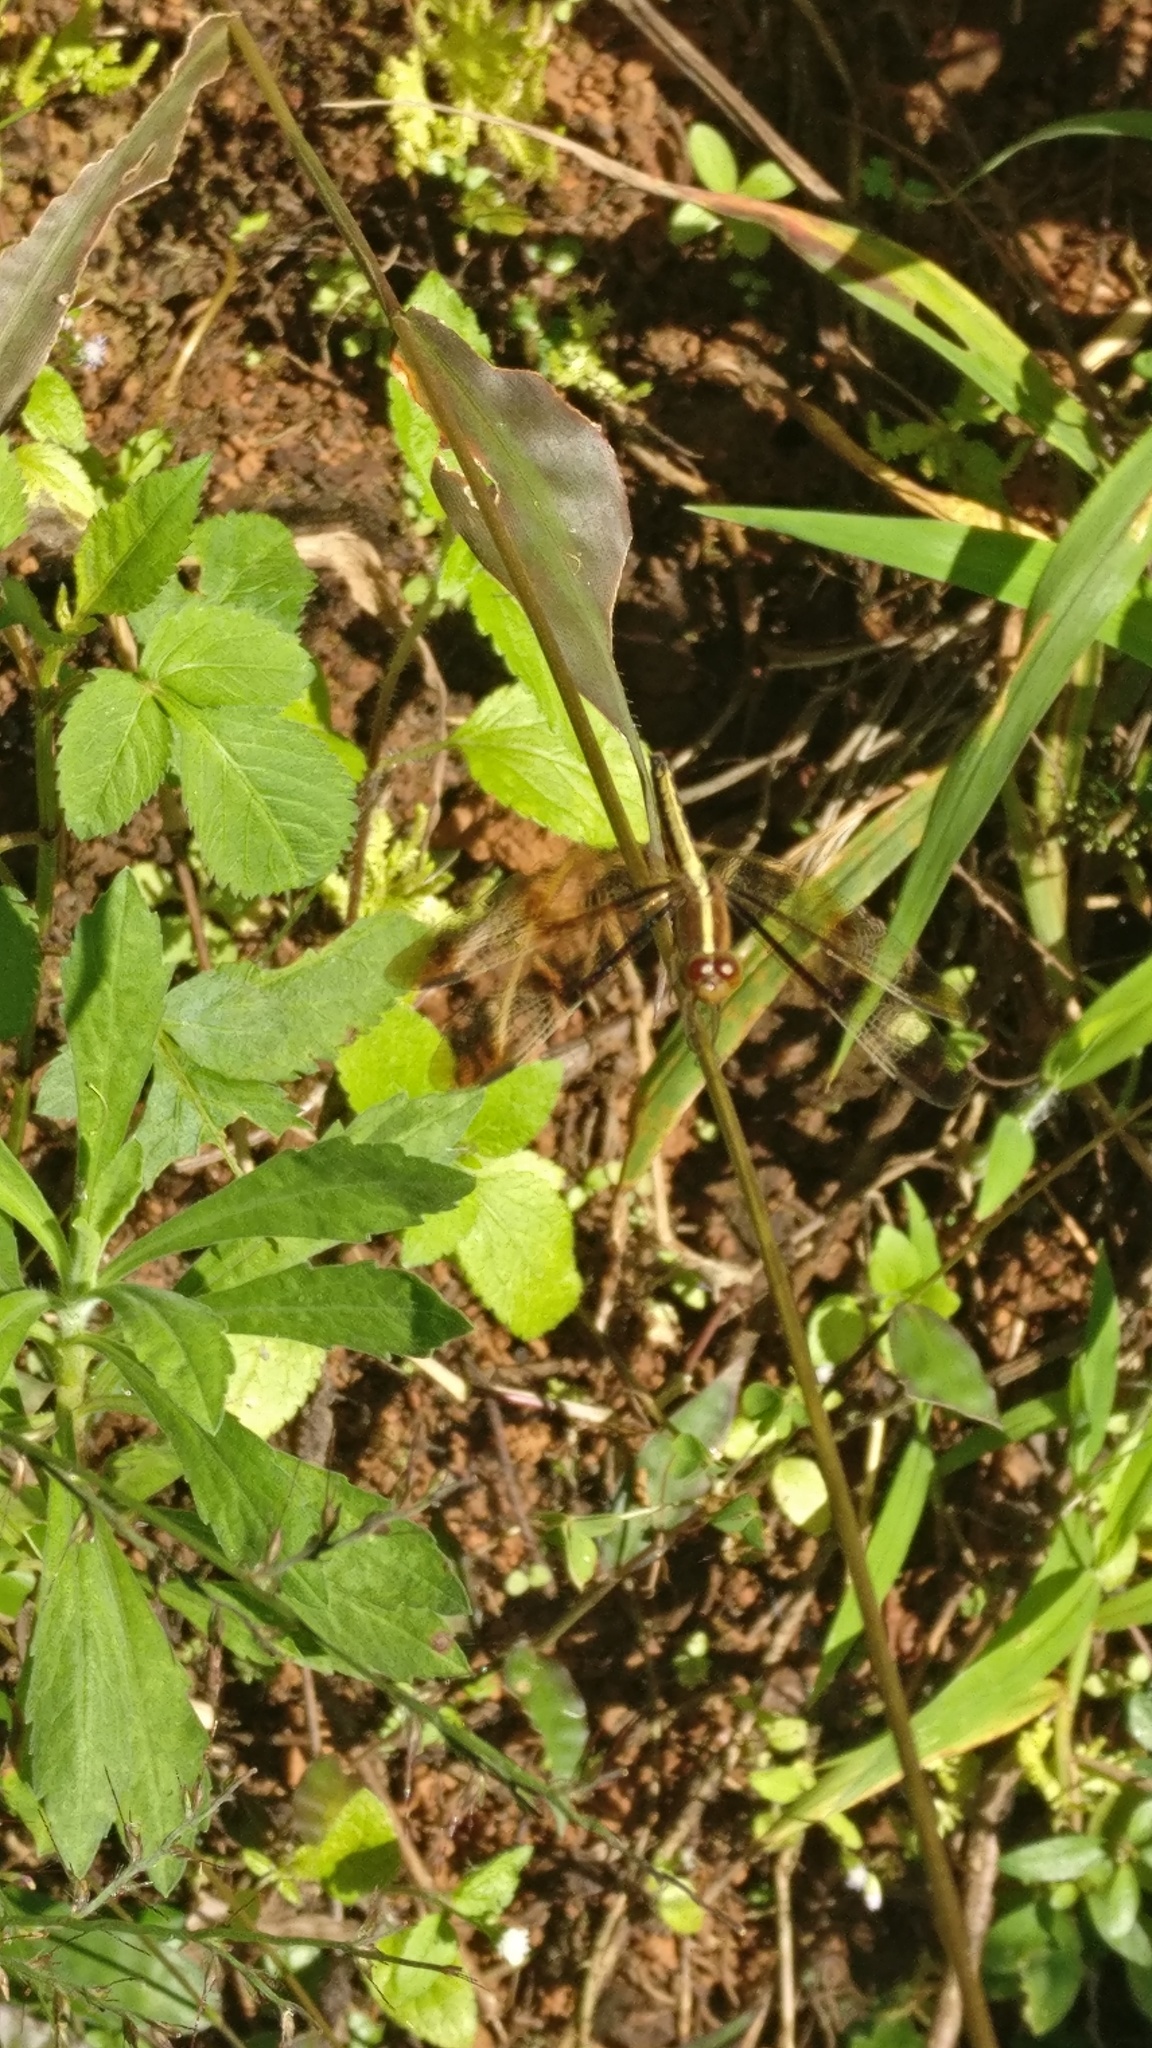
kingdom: Animalia
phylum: Arthropoda
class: Insecta
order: Odonata
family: Libellulidae
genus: Neurothemis
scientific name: Neurothemis tullia
